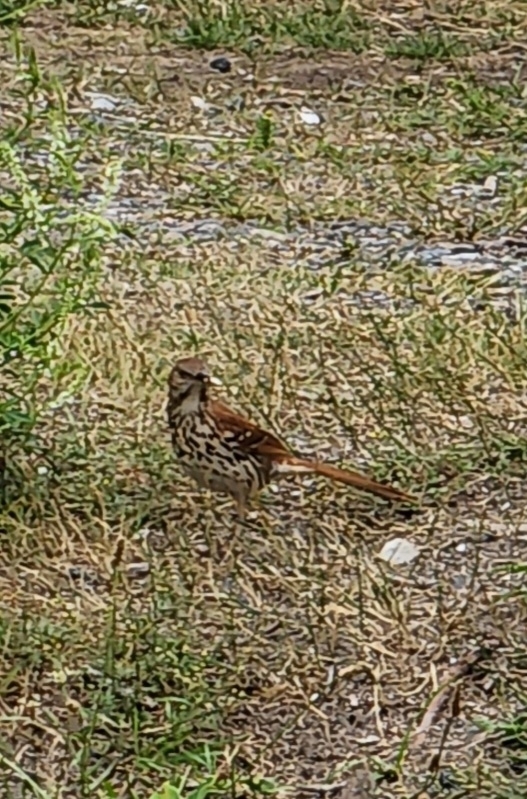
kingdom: Animalia
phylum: Chordata
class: Aves
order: Passeriformes
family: Mimidae
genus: Toxostoma
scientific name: Toxostoma rufum
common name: Brown thrasher
